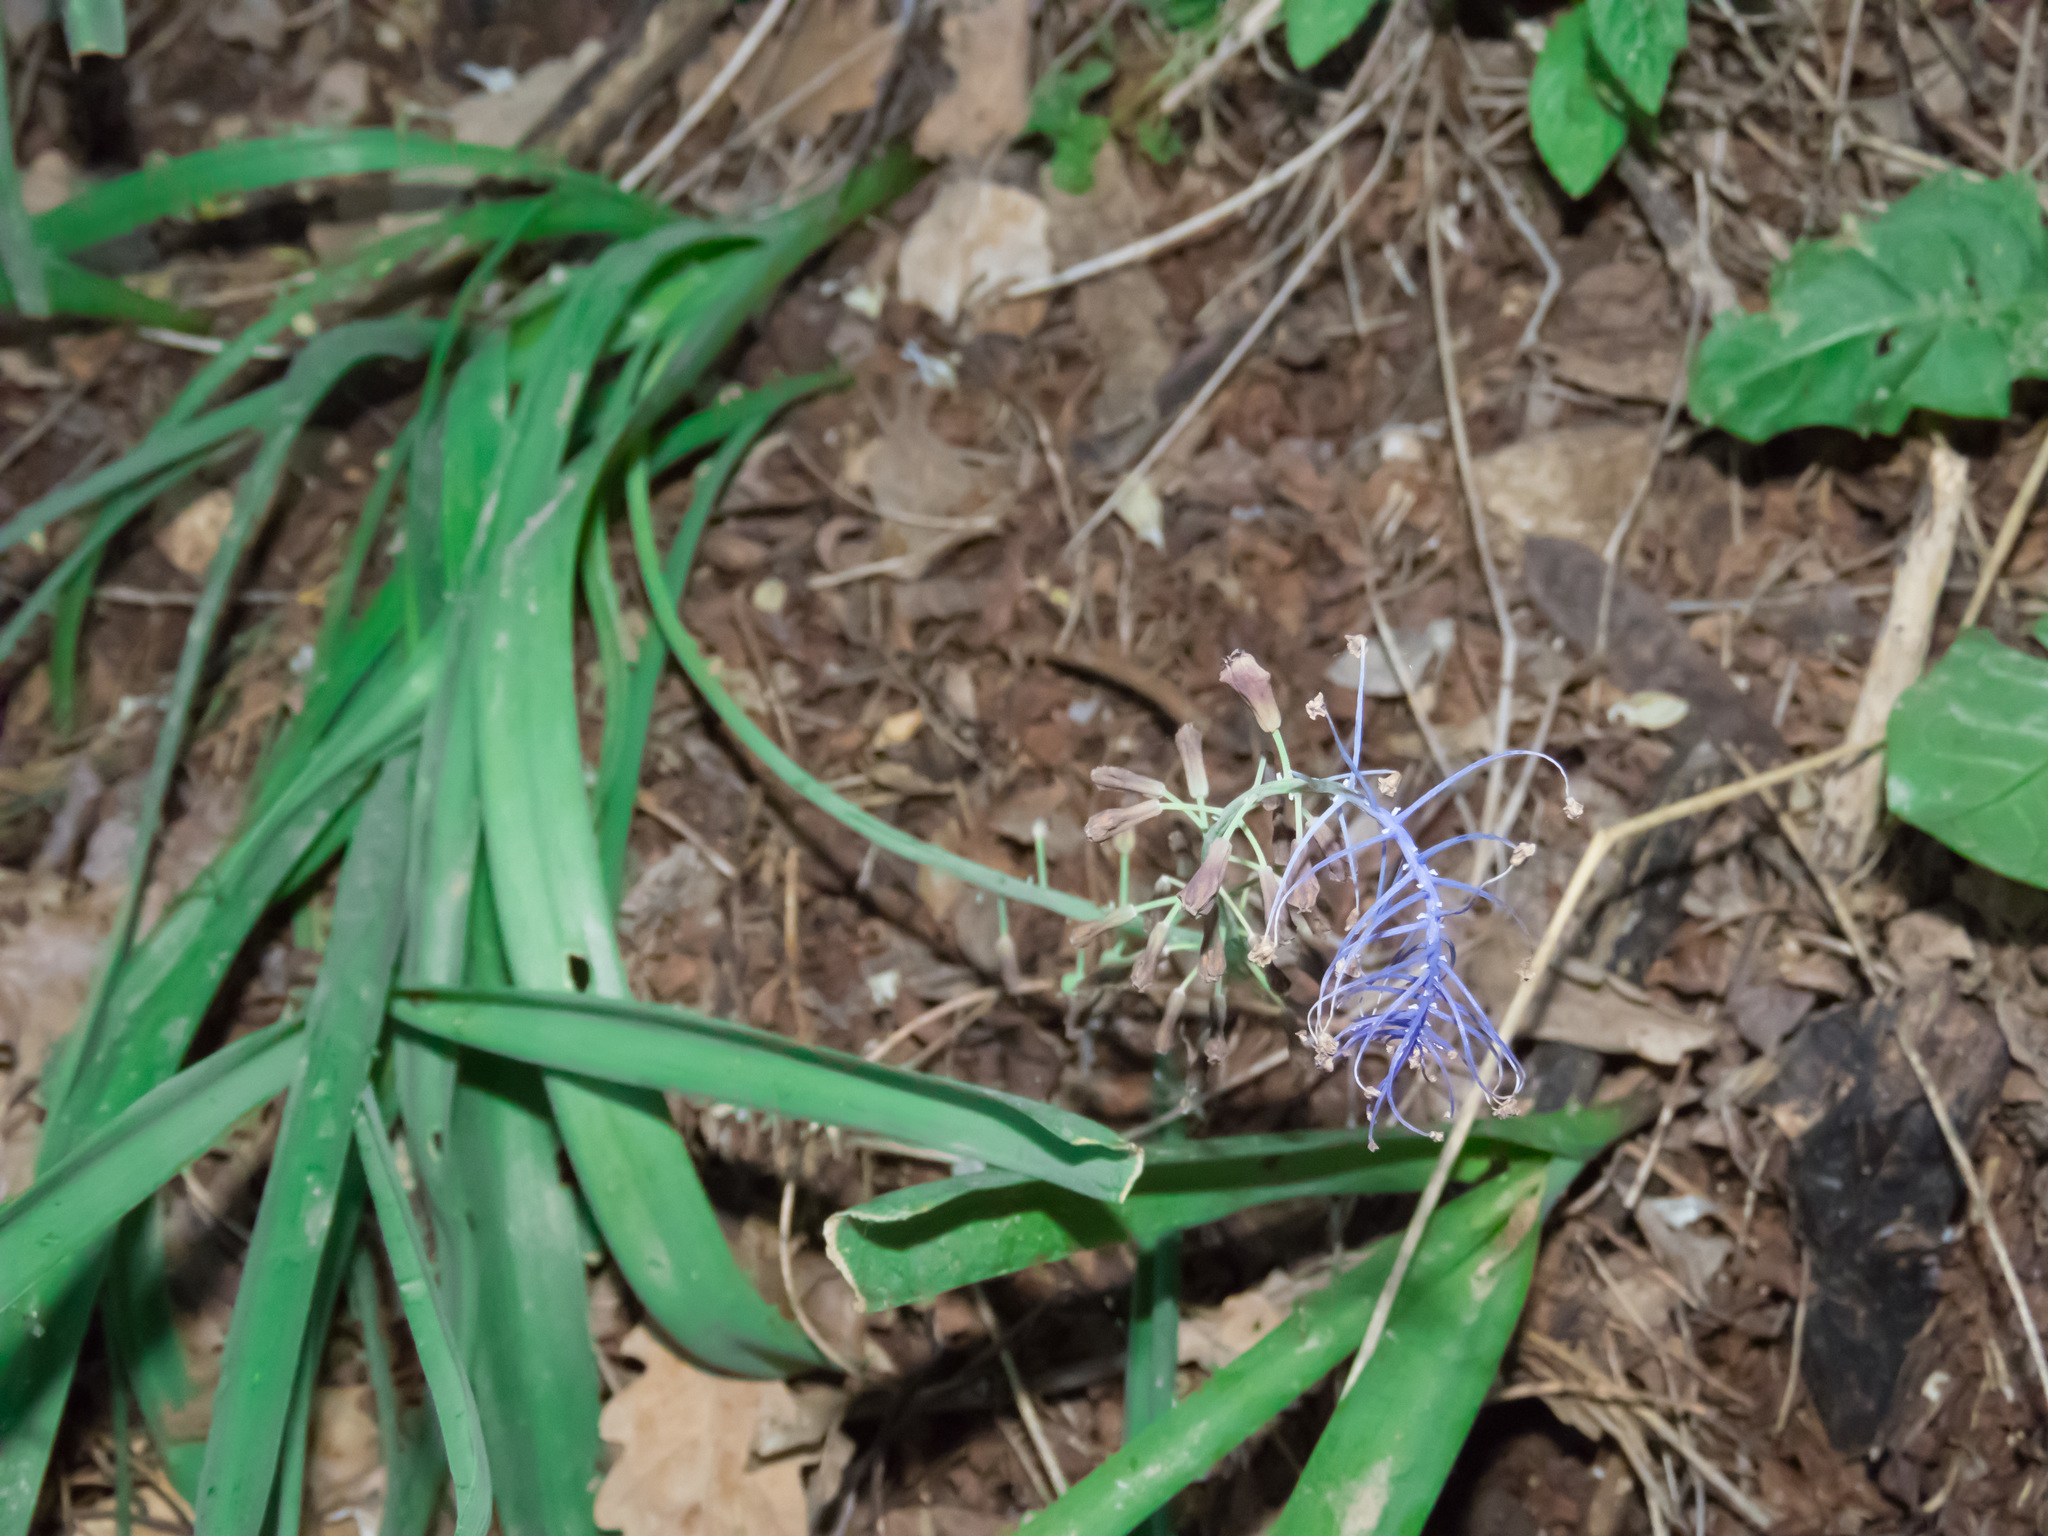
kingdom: Plantae
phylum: Tracheophyta
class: Liliopsida
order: Asparagales
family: Asparagaceae
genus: Muscari
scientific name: Muscari comosum
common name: Tassel hyacinth
